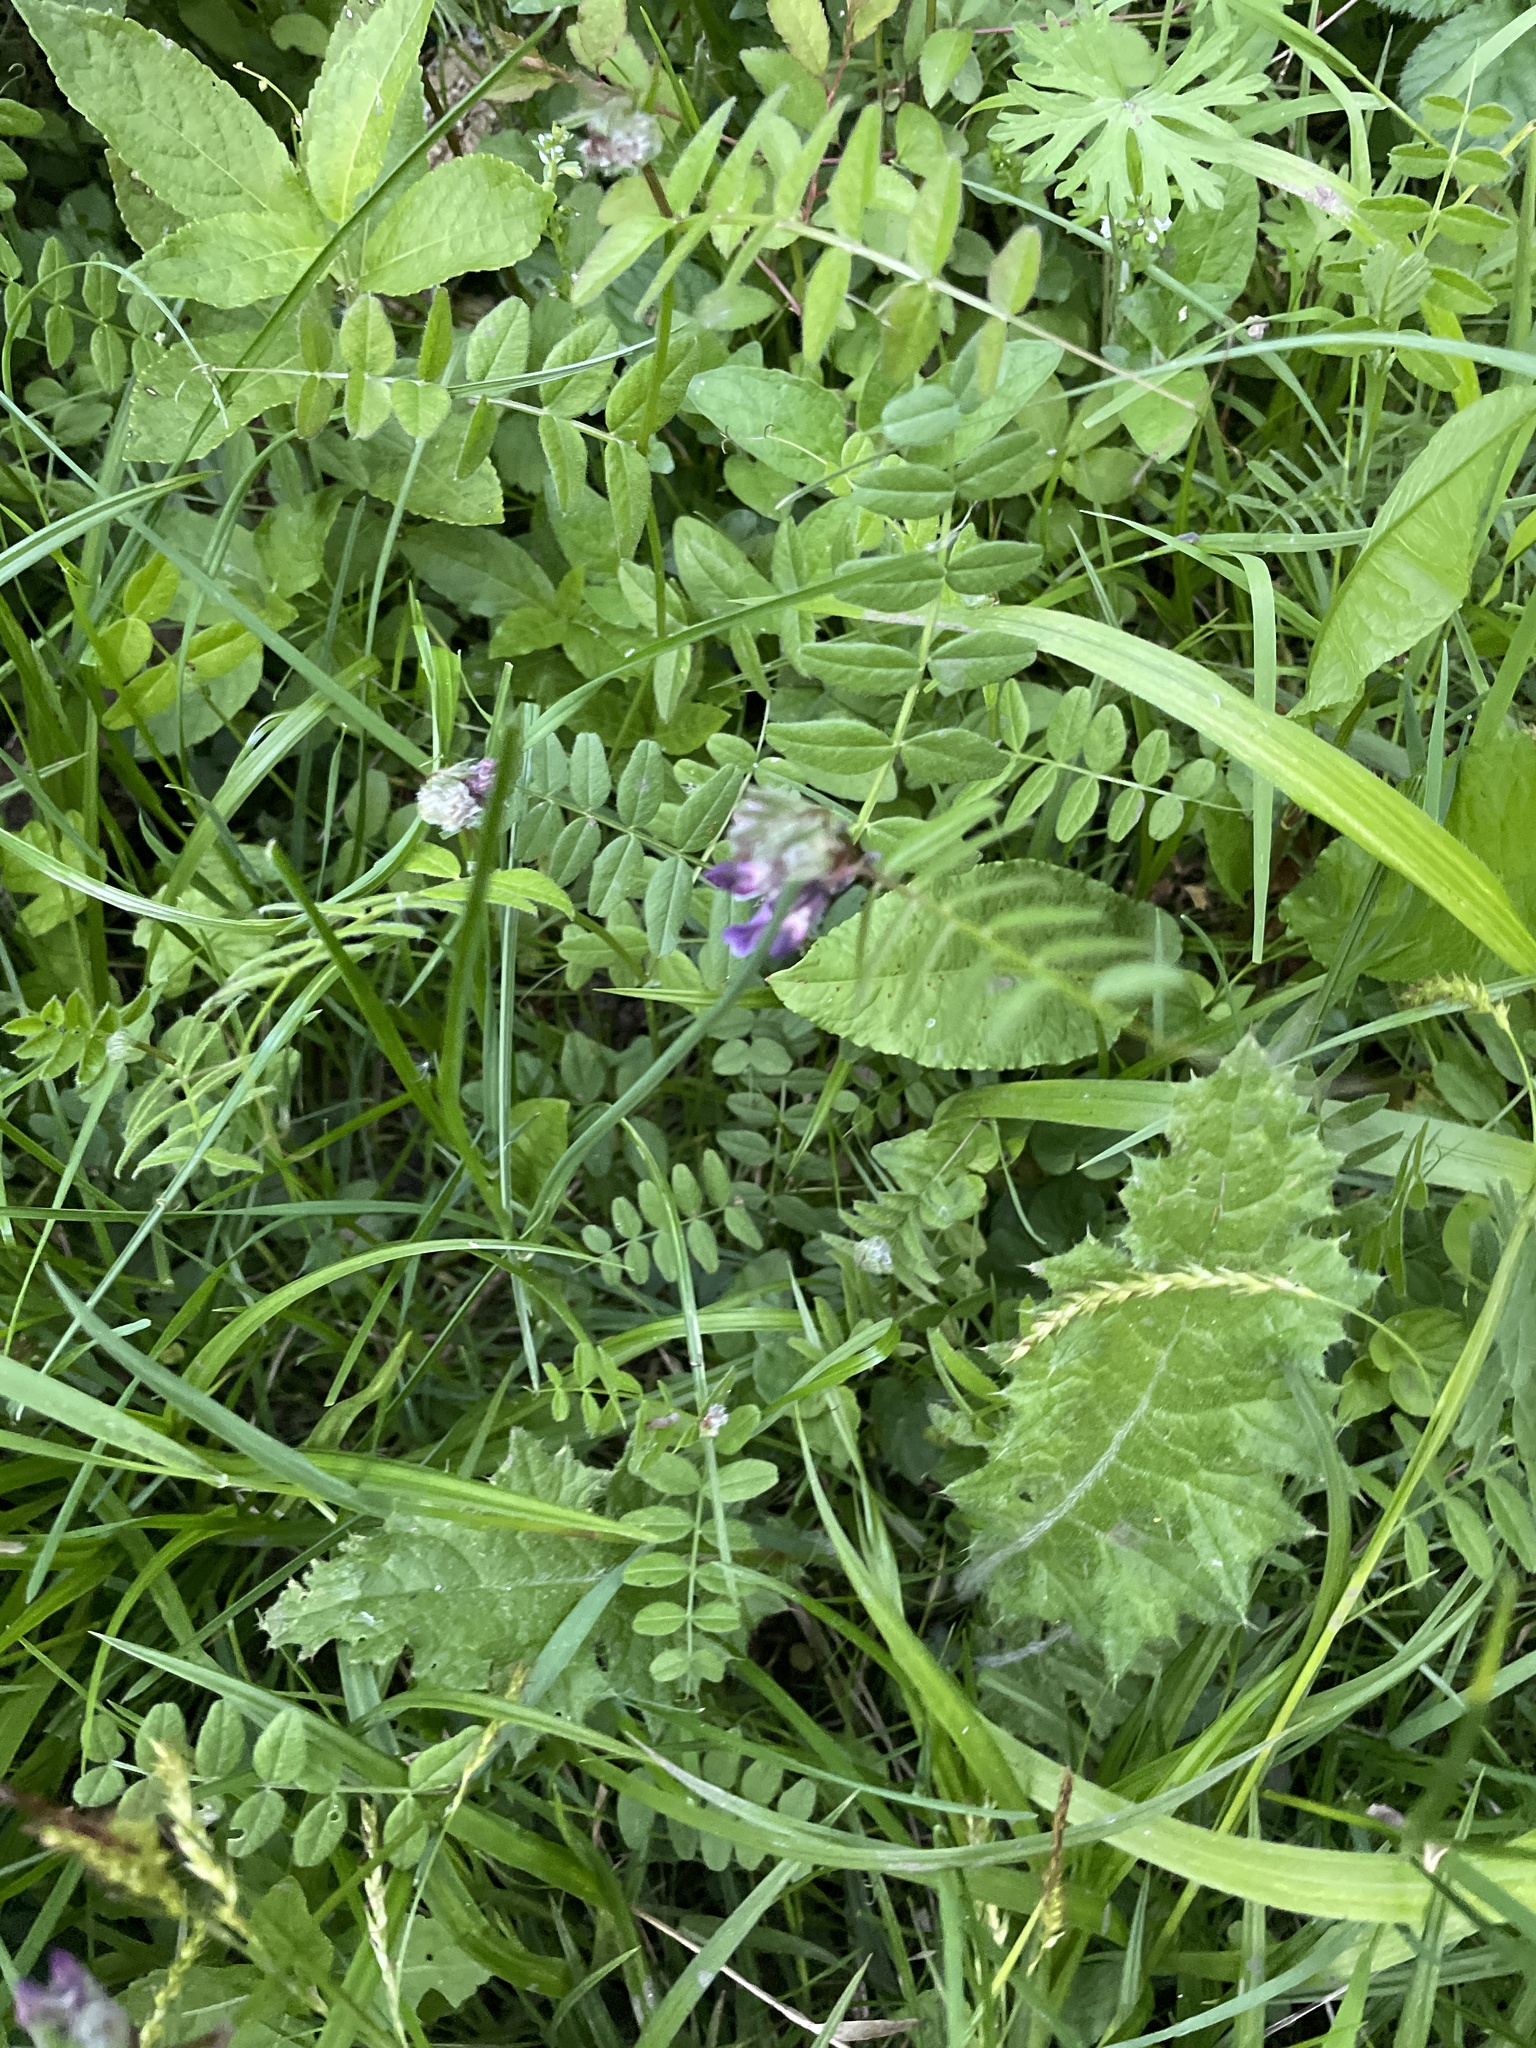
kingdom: Plantae
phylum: Tracheophyta
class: Magnoliopsida
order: Fabales
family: Fabaceae
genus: Vicia
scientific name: Vicia sepium
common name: Bush vetch
